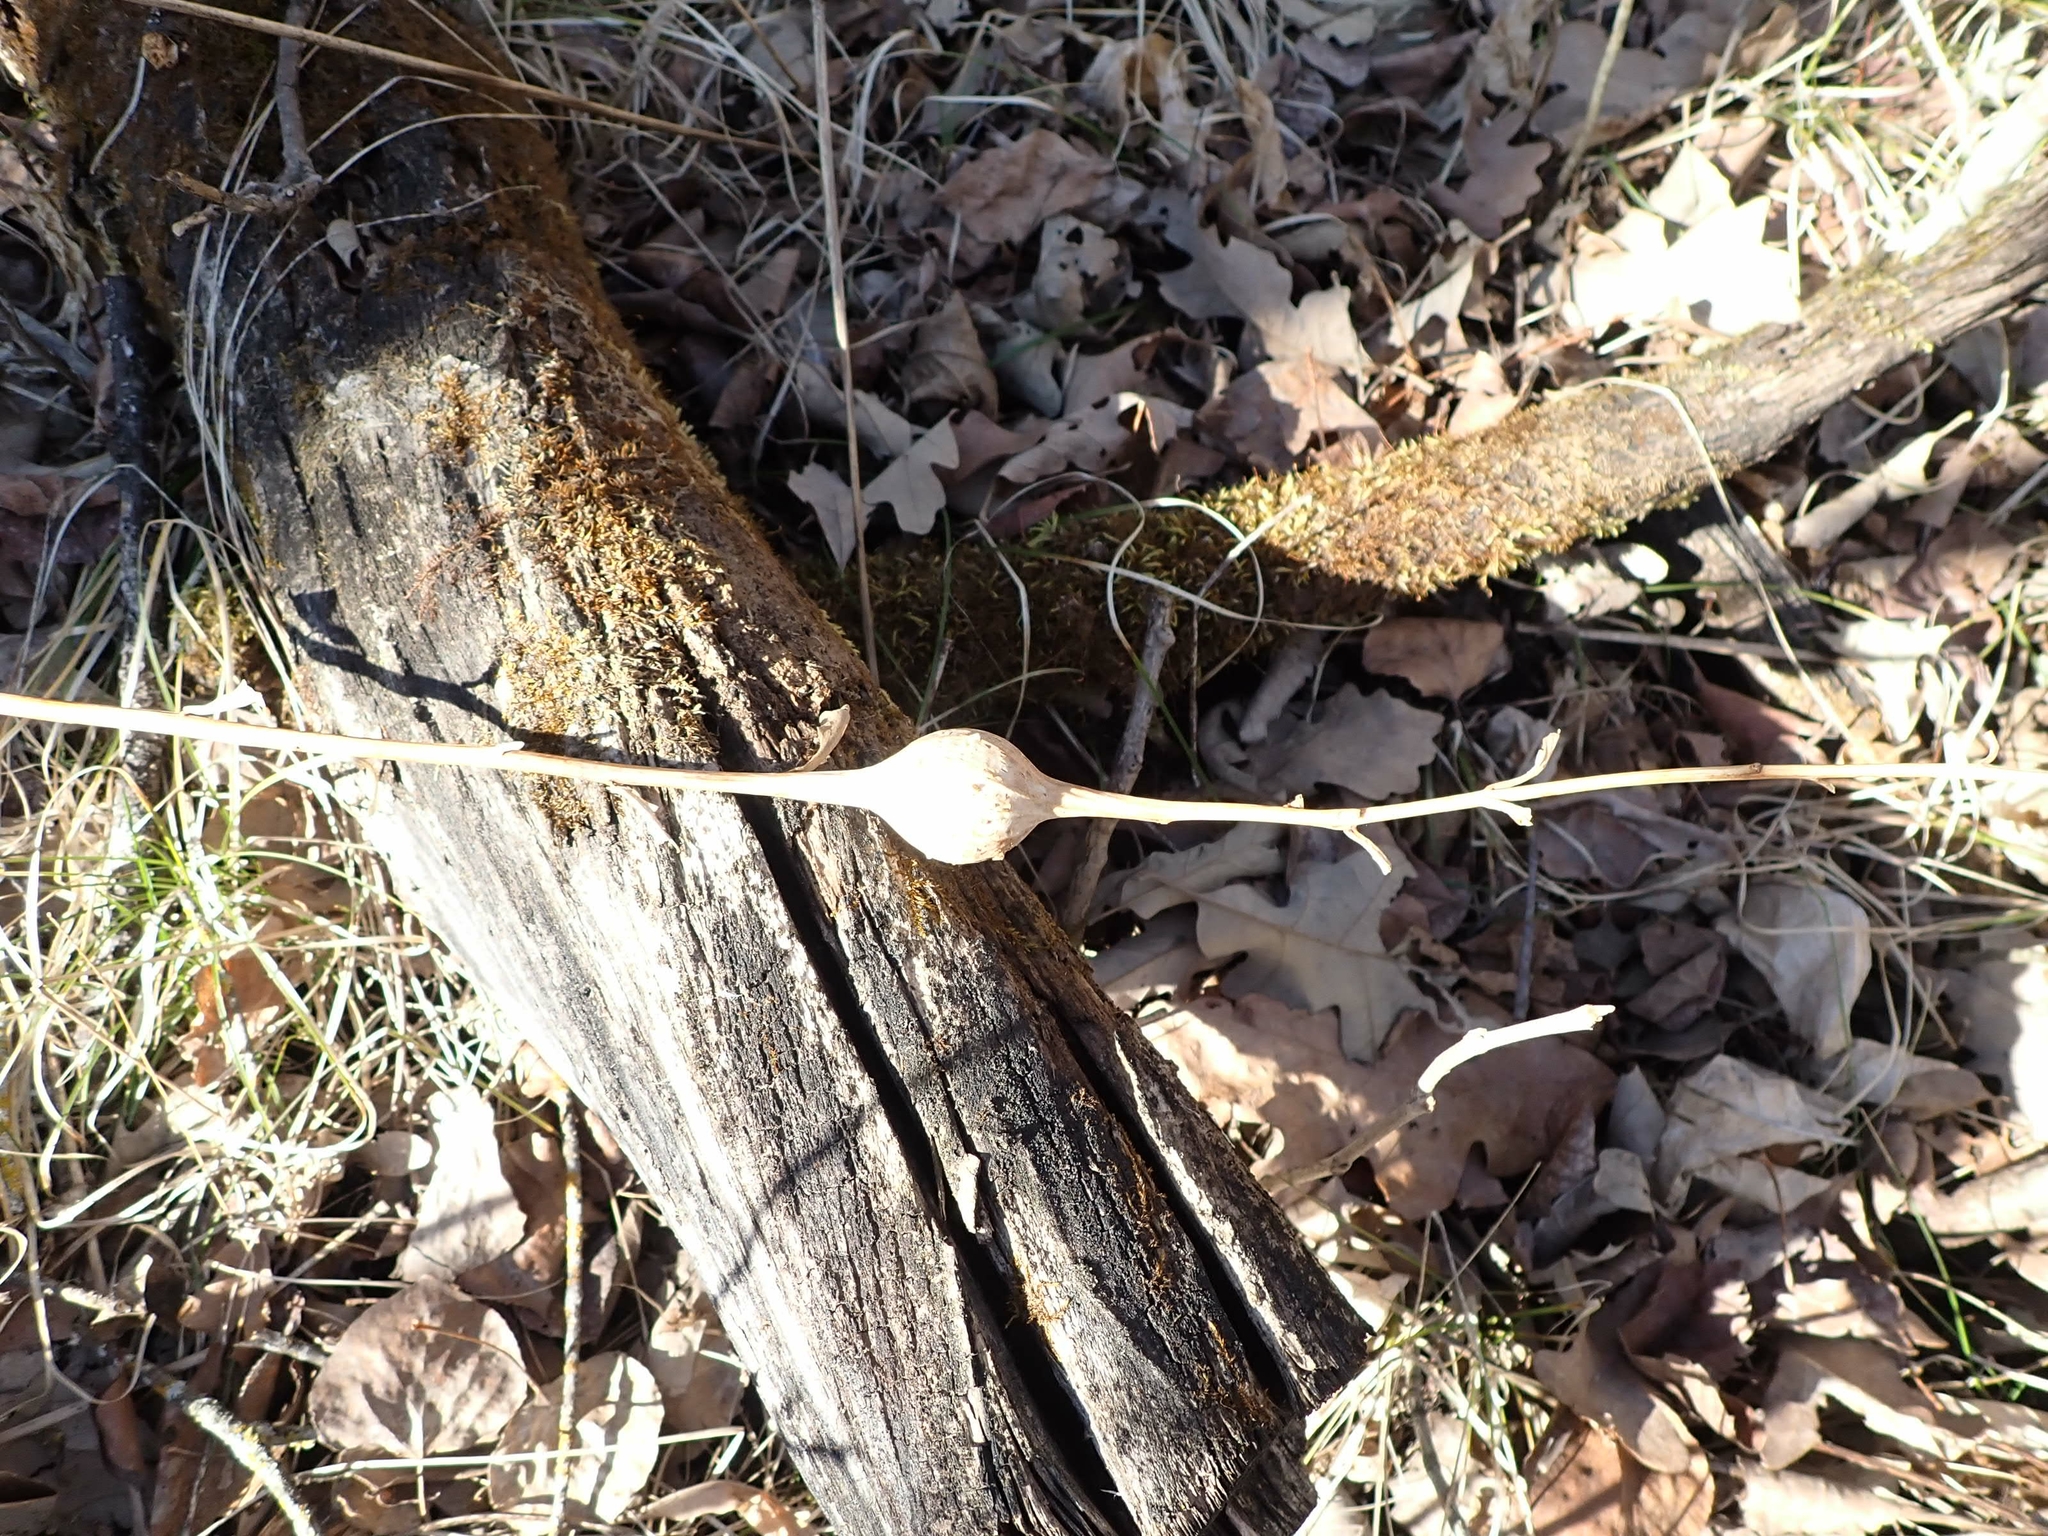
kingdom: Animalia
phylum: Arthropoda
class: Insecta
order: Diptera
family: Tephritidae
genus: Eurosta
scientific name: Eurosta solidaginis
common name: Goldenrod gall fly
